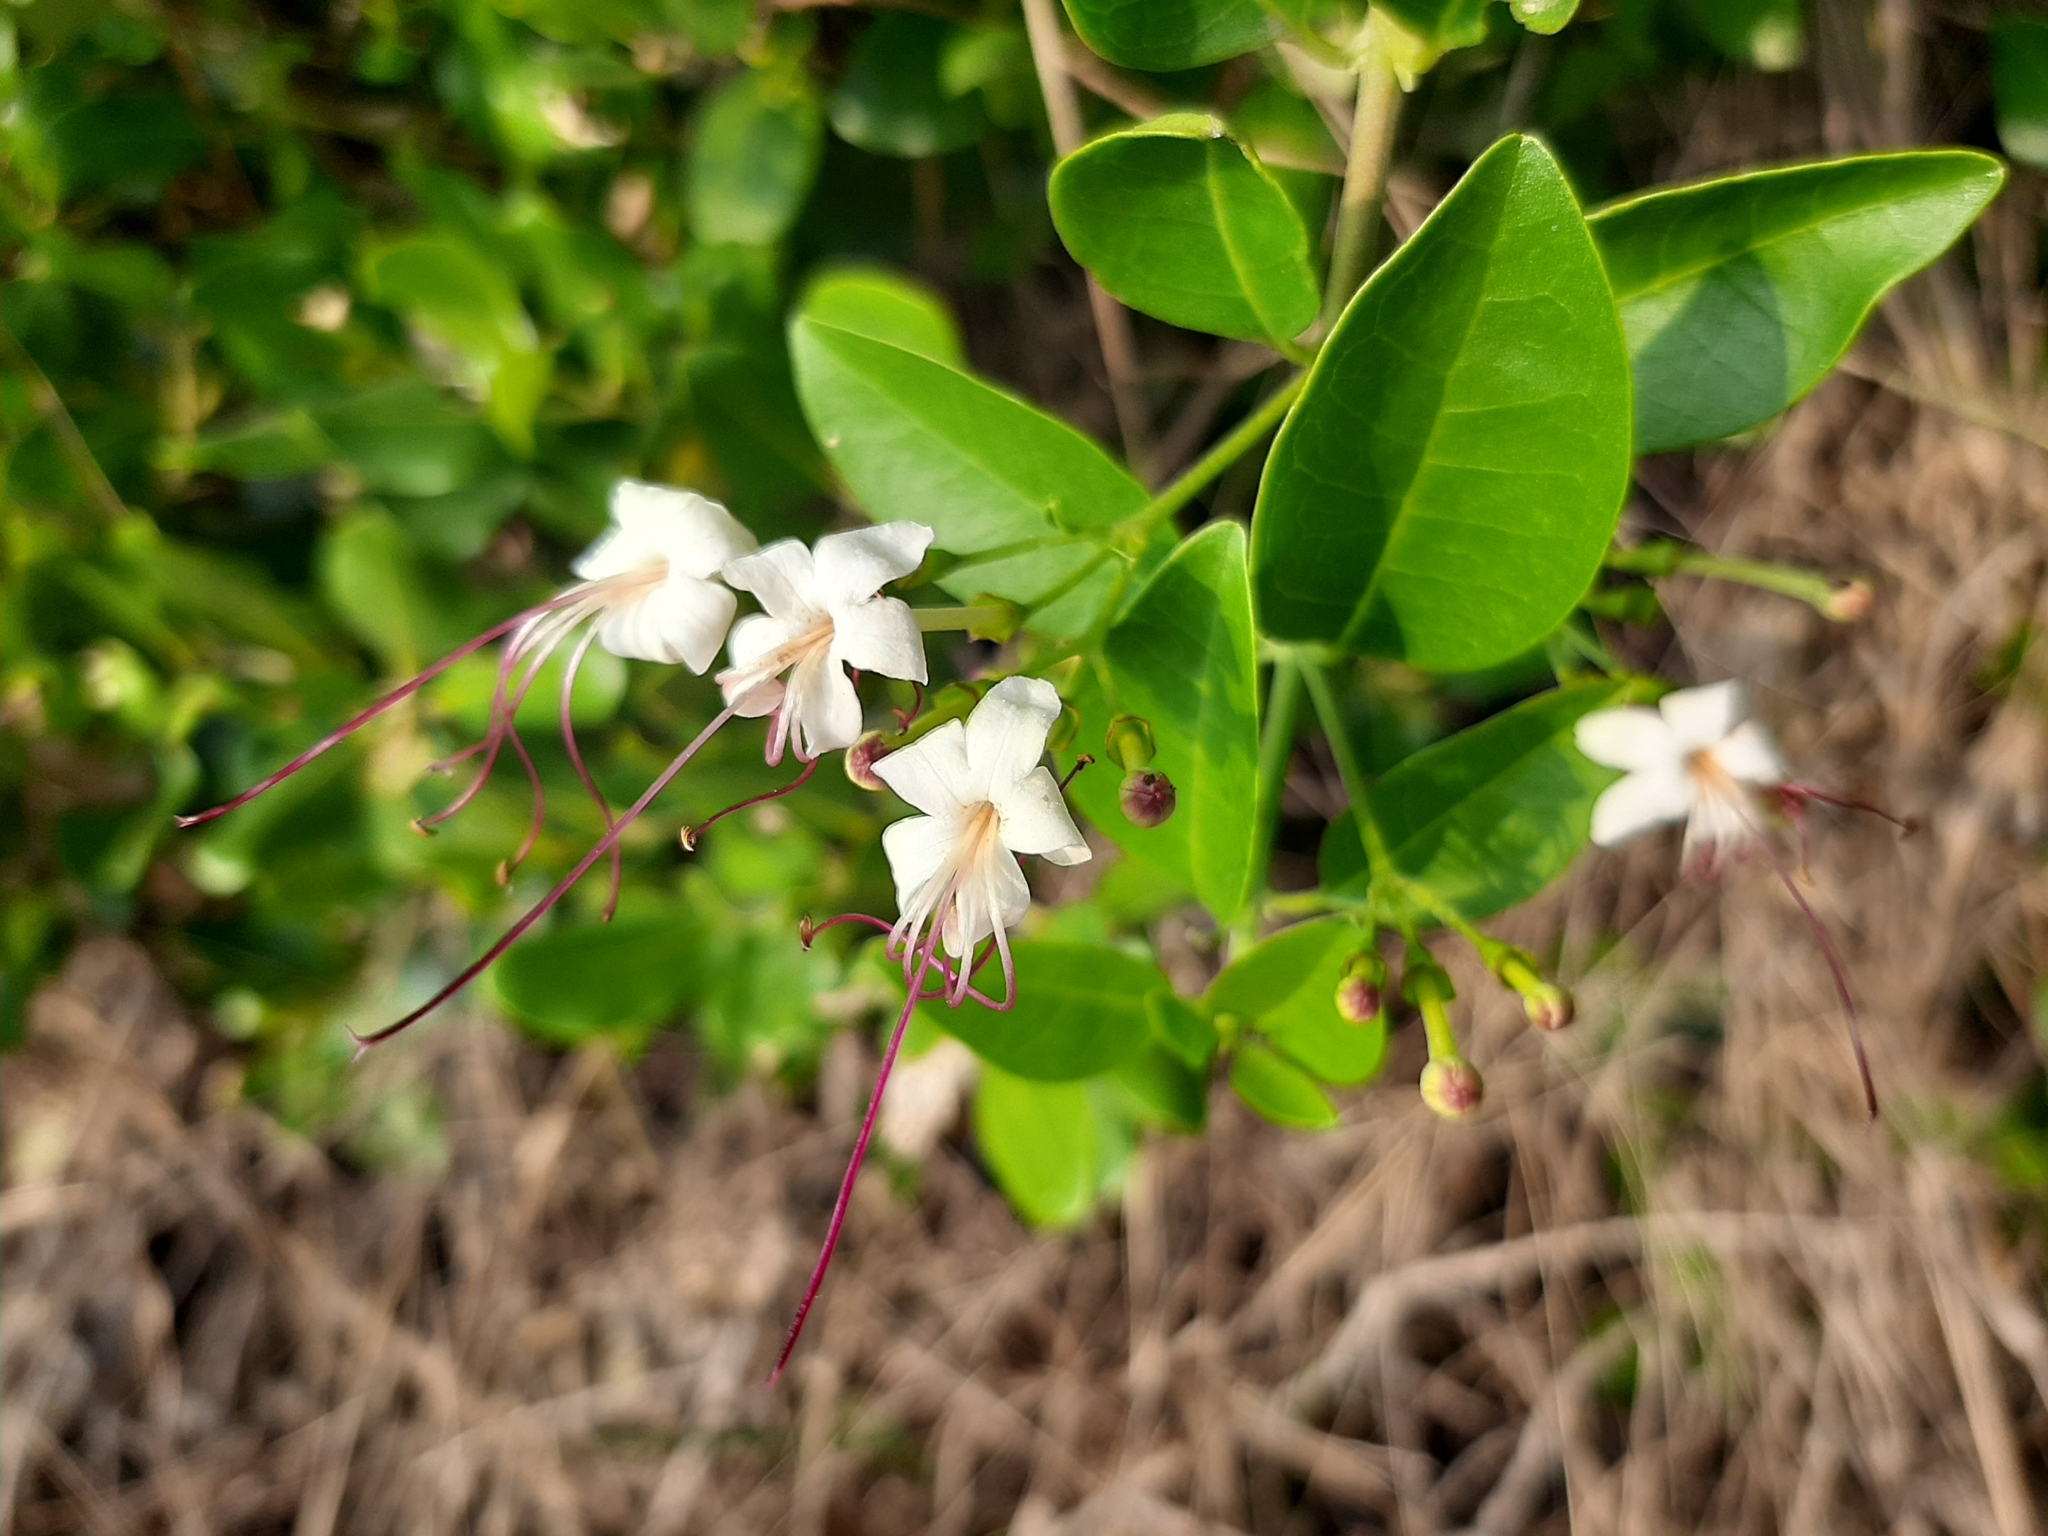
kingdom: Plantae
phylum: Tracheophyta
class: Magnoliopsida
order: Lamiales
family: Lamiaceae
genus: Volkameria
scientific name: Volkameria inermis
